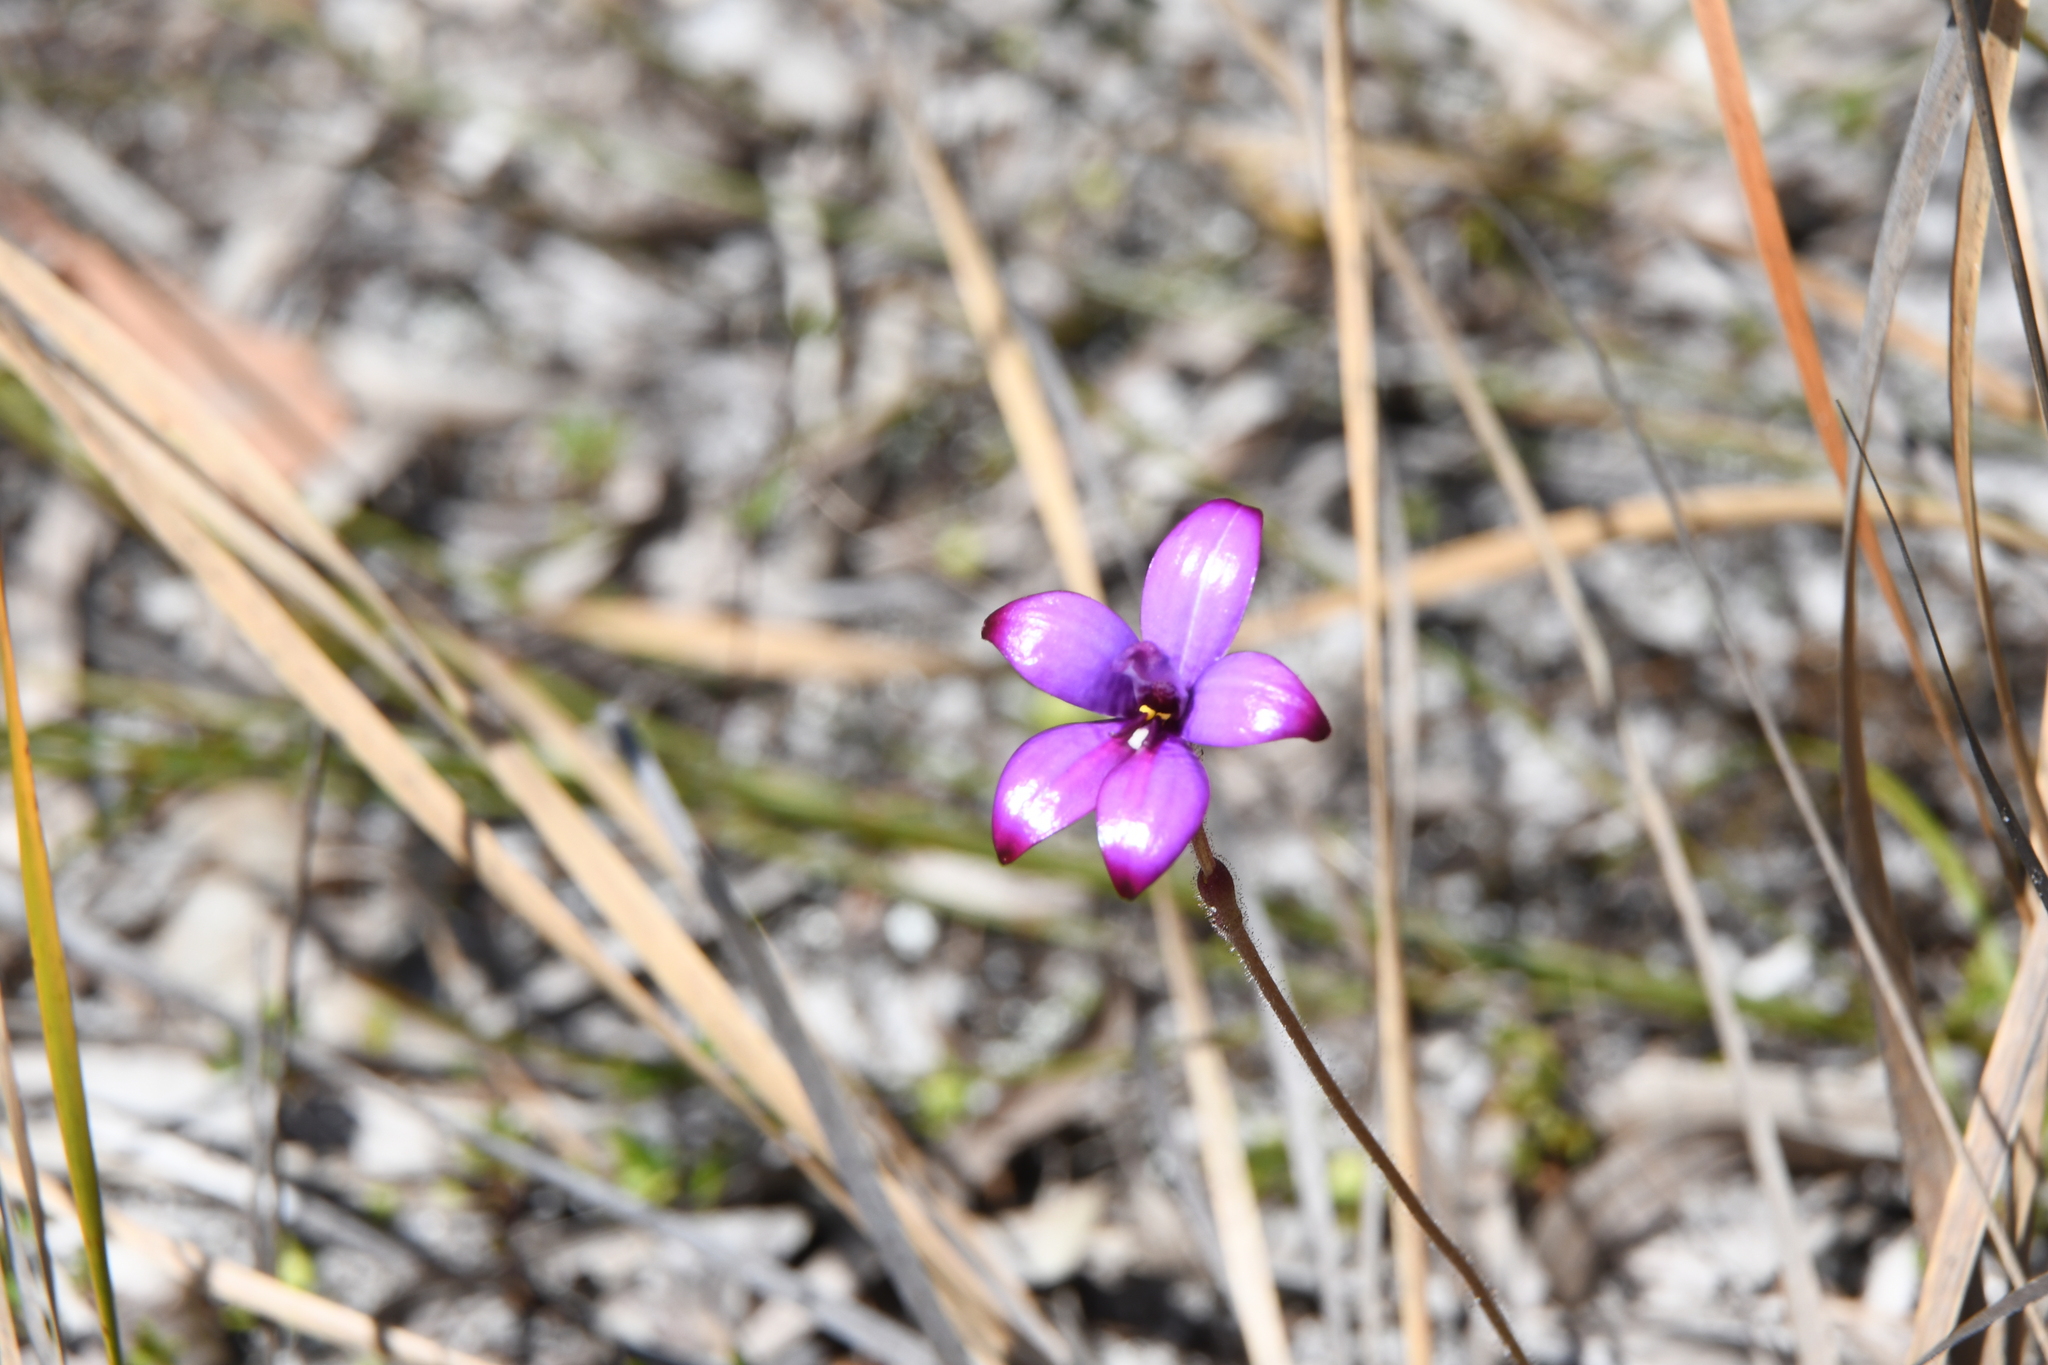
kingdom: Plantae
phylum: Tracheophyta
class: Liliopsida
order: Asparagales
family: Orchidaceae
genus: Caladenia
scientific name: Caladenia brunonis
